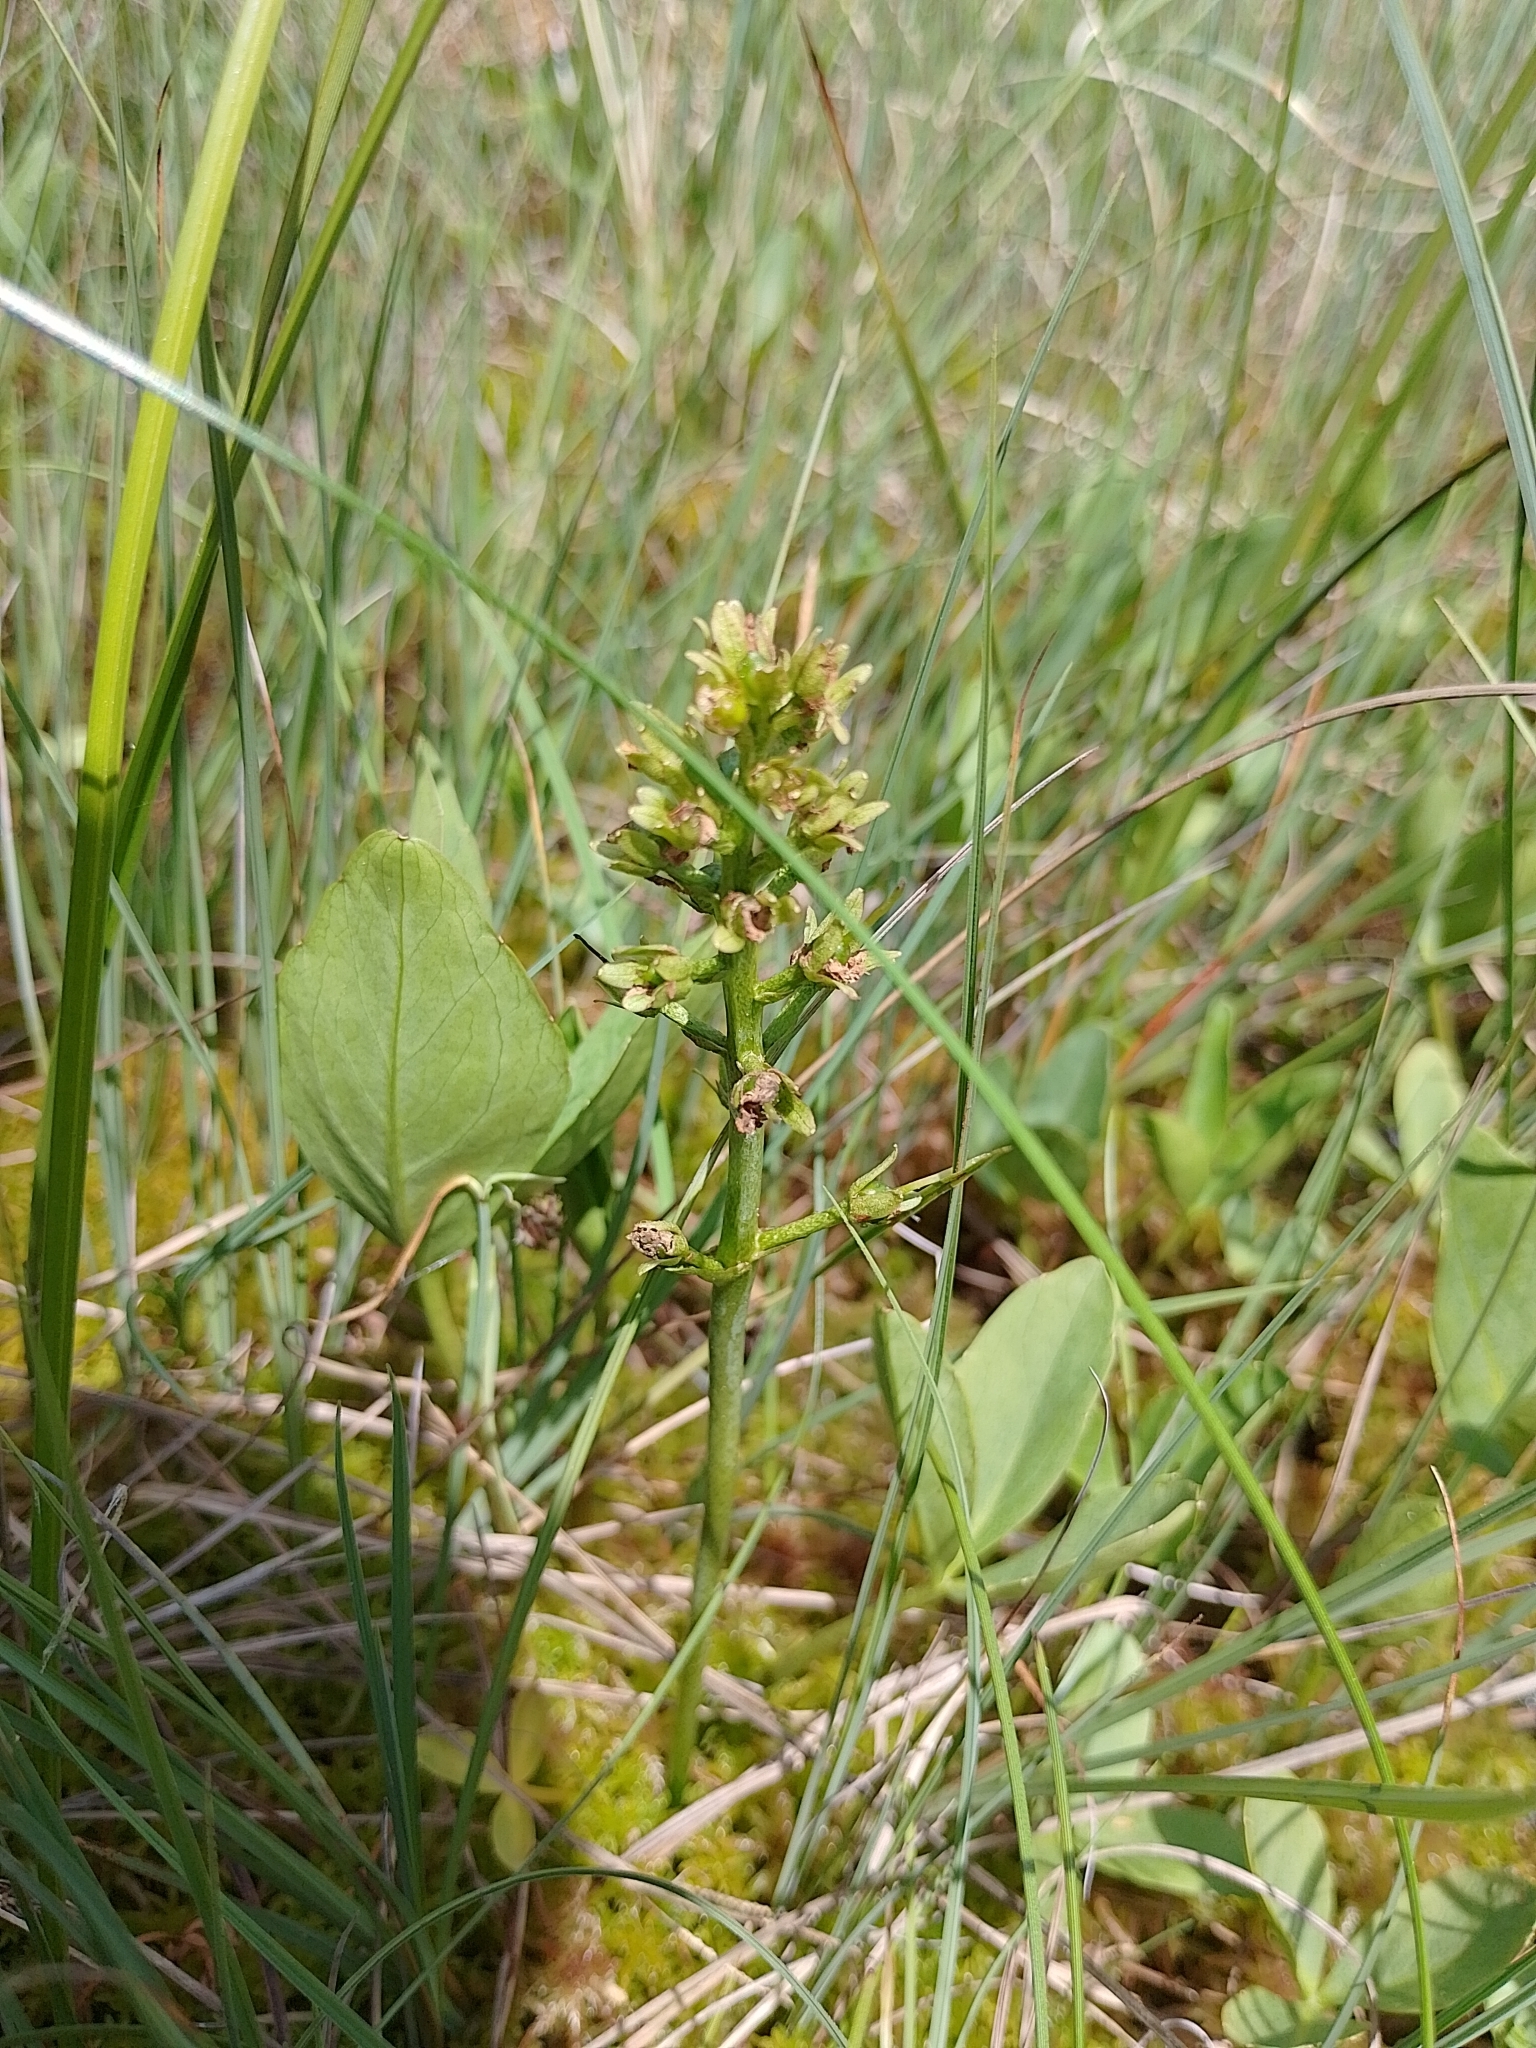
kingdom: Plantae
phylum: Tracheophyta
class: Magnoliopsida
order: Asterales
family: Menyanthaceae
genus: Menyanthes
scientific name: Menyanthes trifoliata
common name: Bogbean
